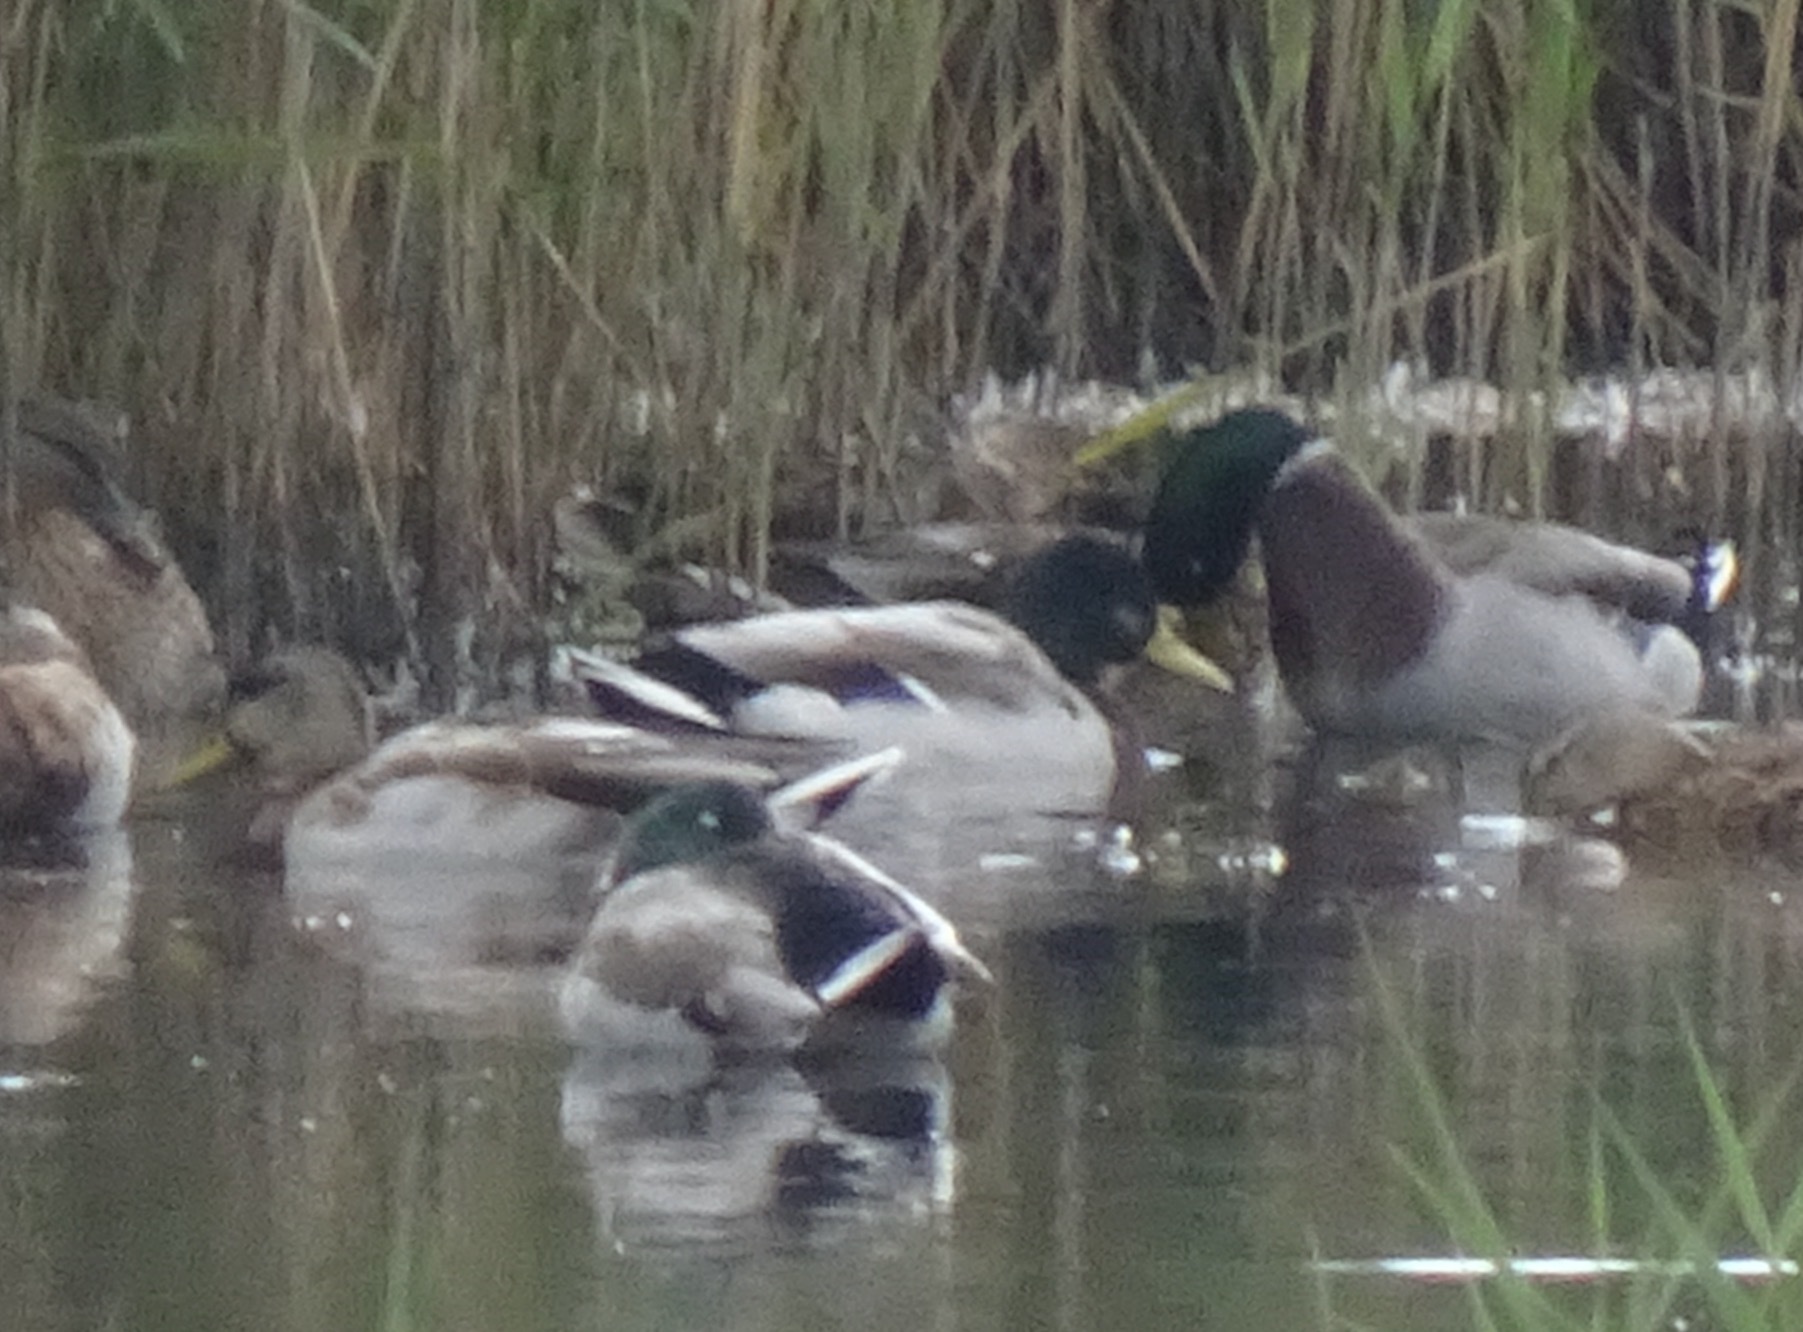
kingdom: Animalia
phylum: Chordata
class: Aves
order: Anseriformes
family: Anatidae
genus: Anas
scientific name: Anas platyrhynchos
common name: Mallard
